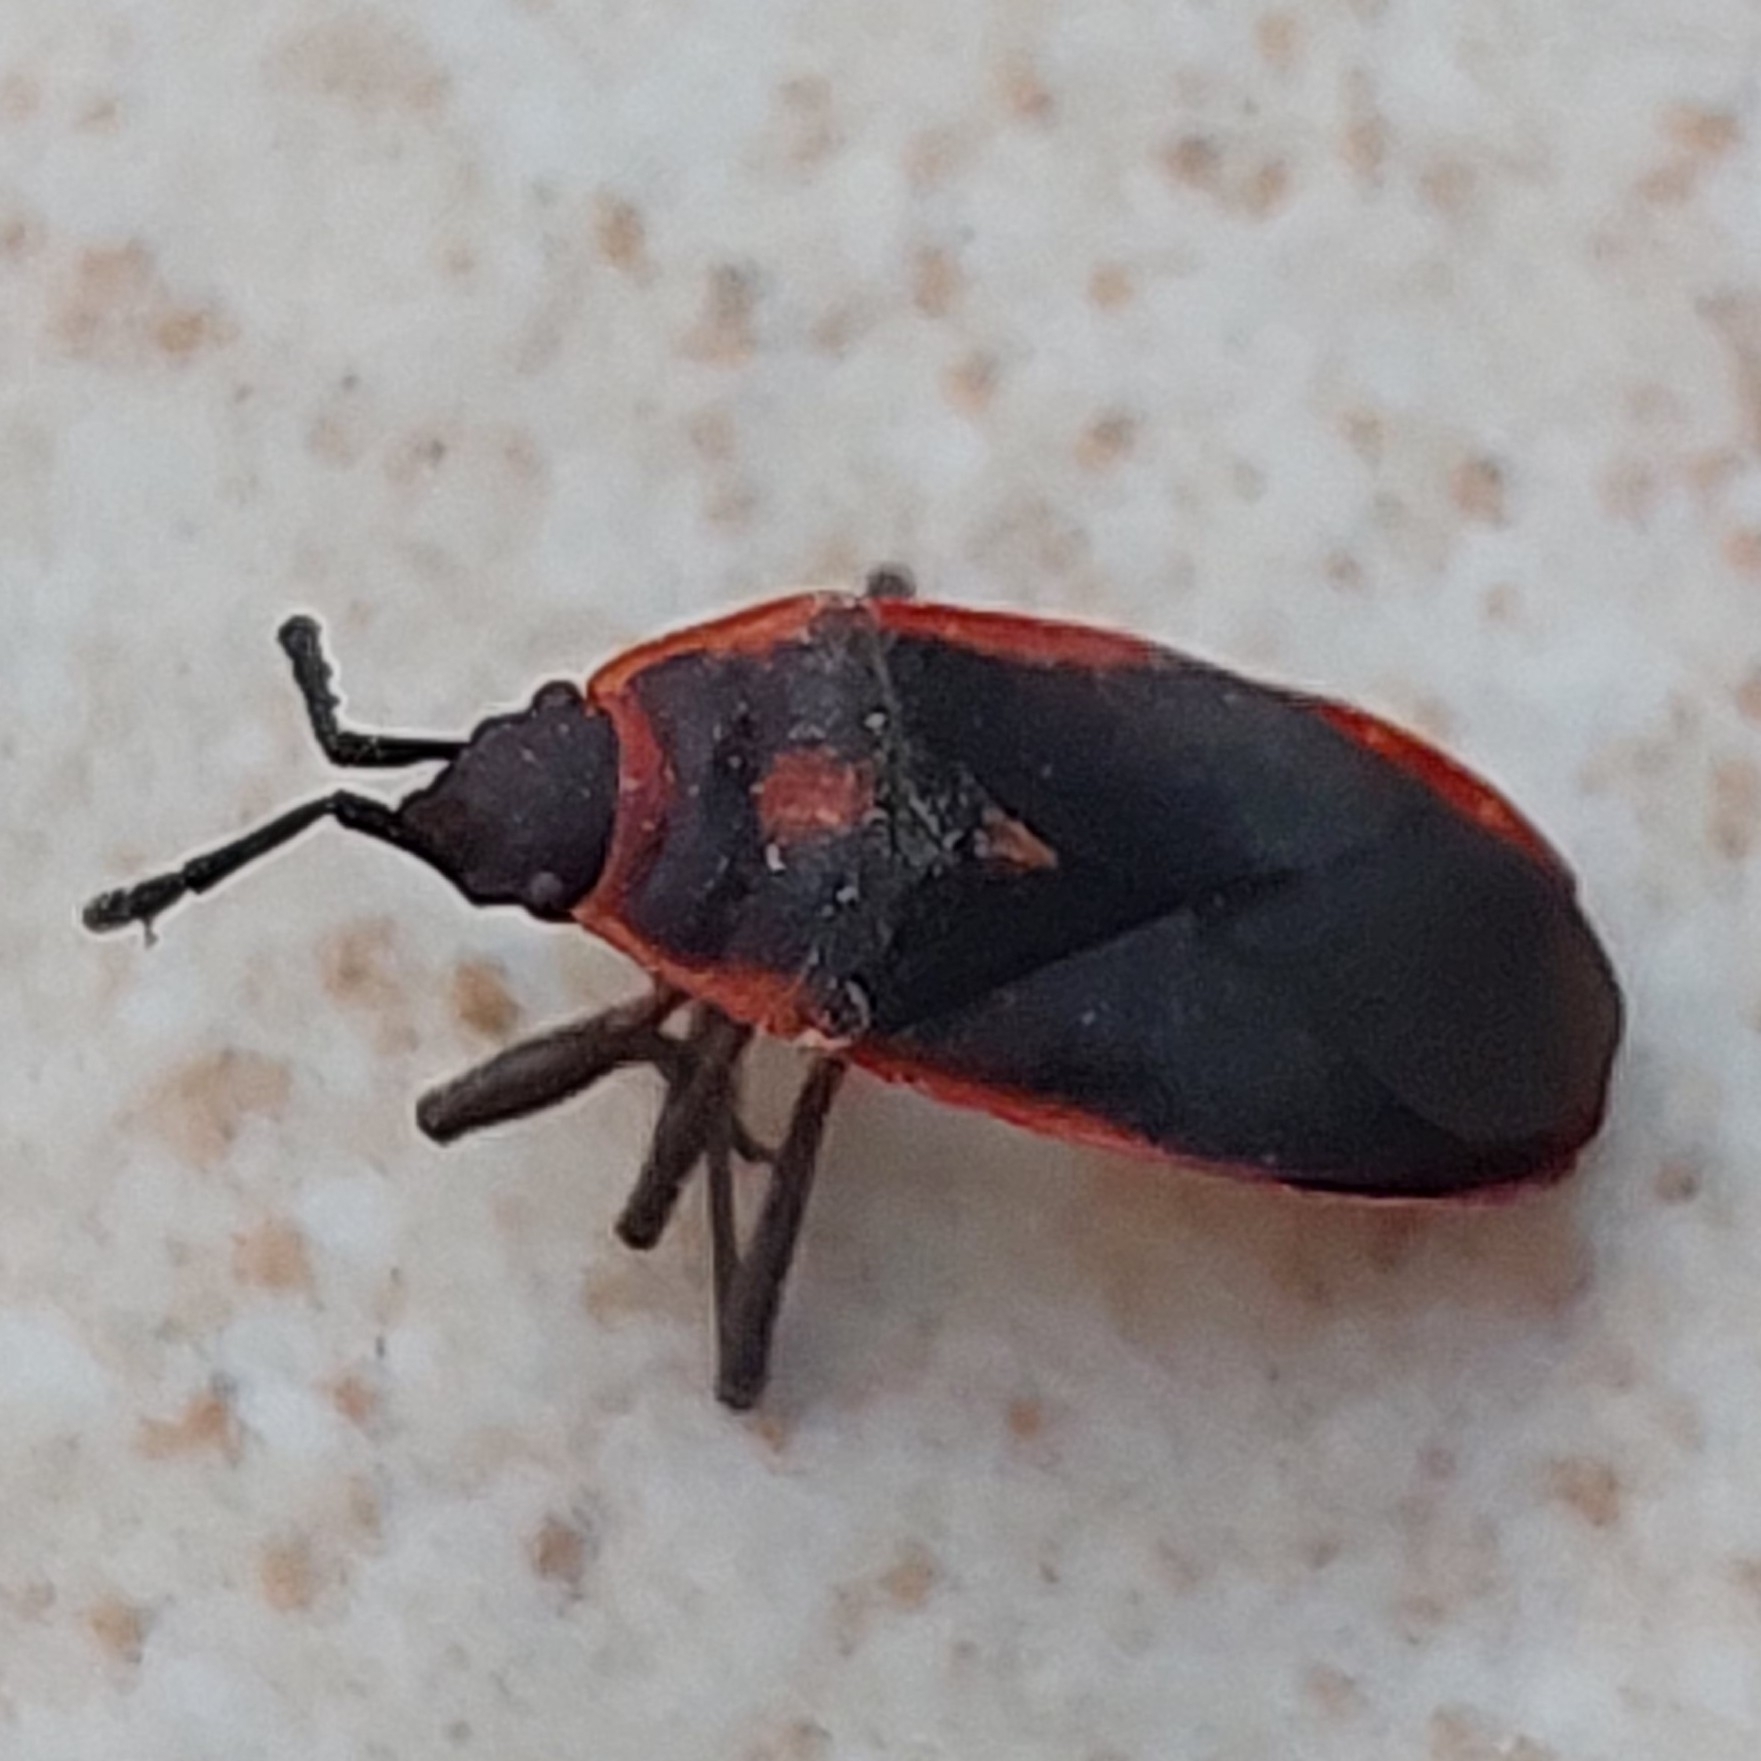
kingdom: Animalia
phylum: Arthropoda
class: Insecta
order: Hemiptera
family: Pyrrhocoridae
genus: Scantius
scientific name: Scantius forsteri
